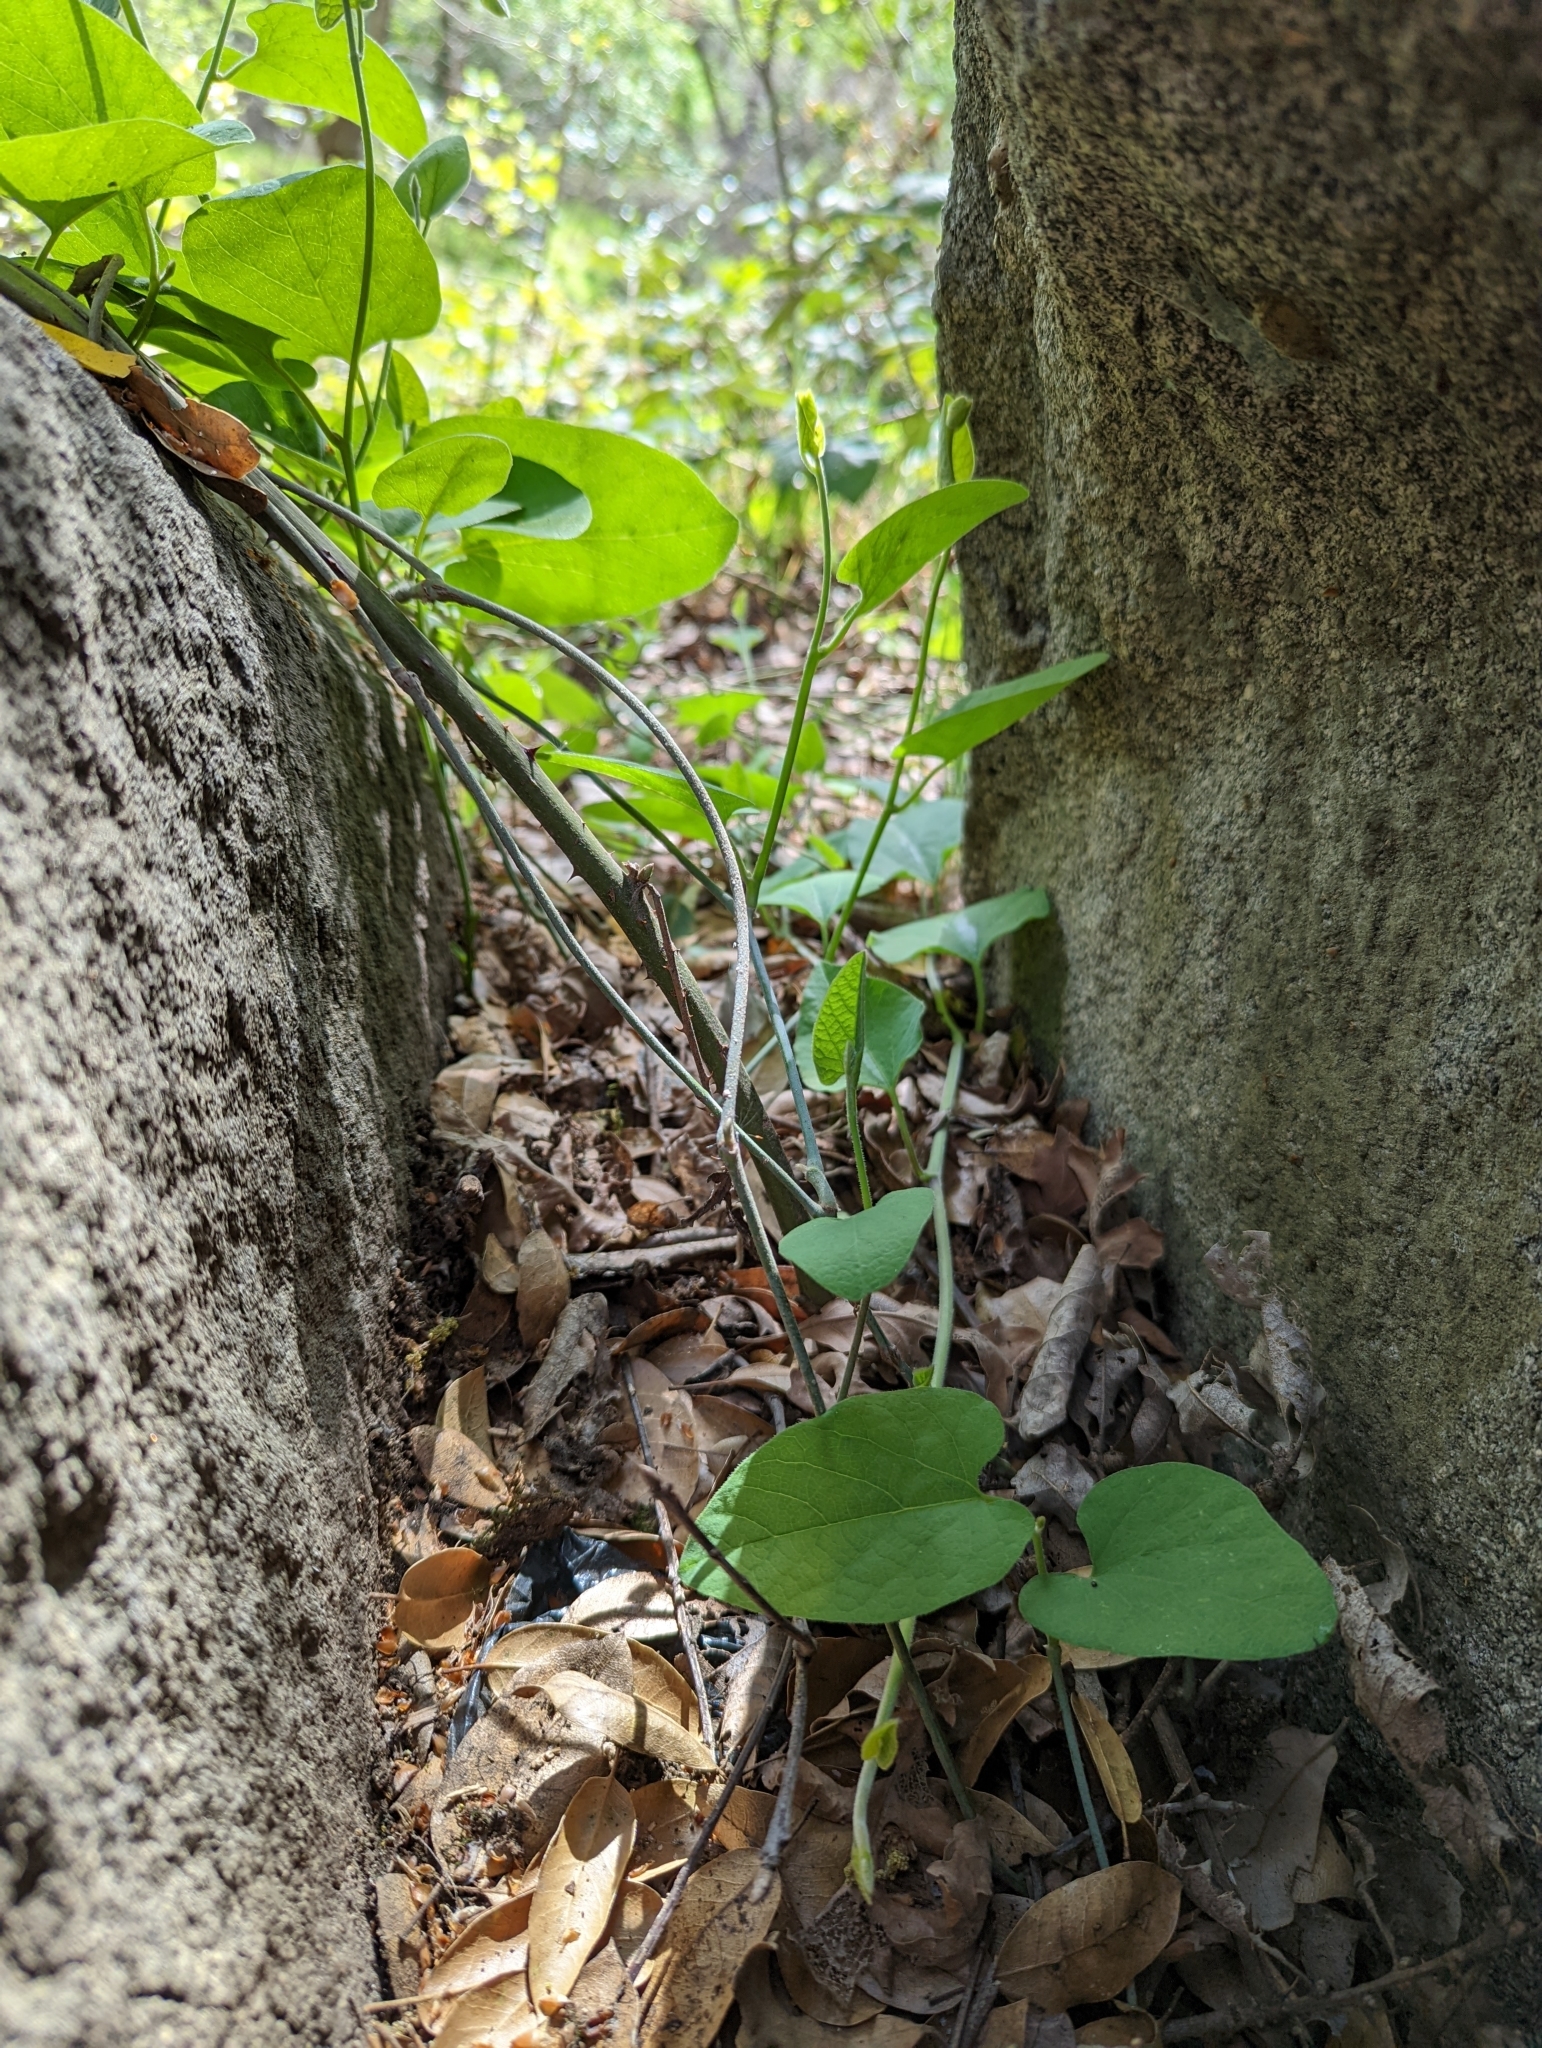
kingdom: Plantae
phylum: Tracheophyta
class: Magnoliopsida
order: Piperales
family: Aristolochiaceae
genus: Isotrema
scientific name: Isotrema californicum
